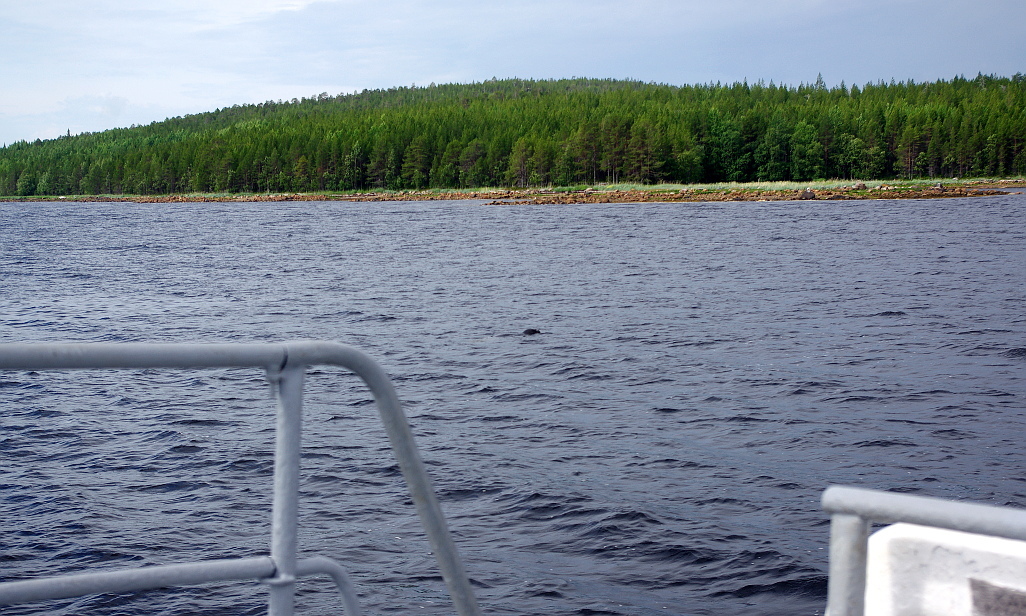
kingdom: Animalia
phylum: Chordata
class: Mammalia
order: Carnivora
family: Phocidae
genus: Erignathus
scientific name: Erignathus barbatus
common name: Bearded seal
